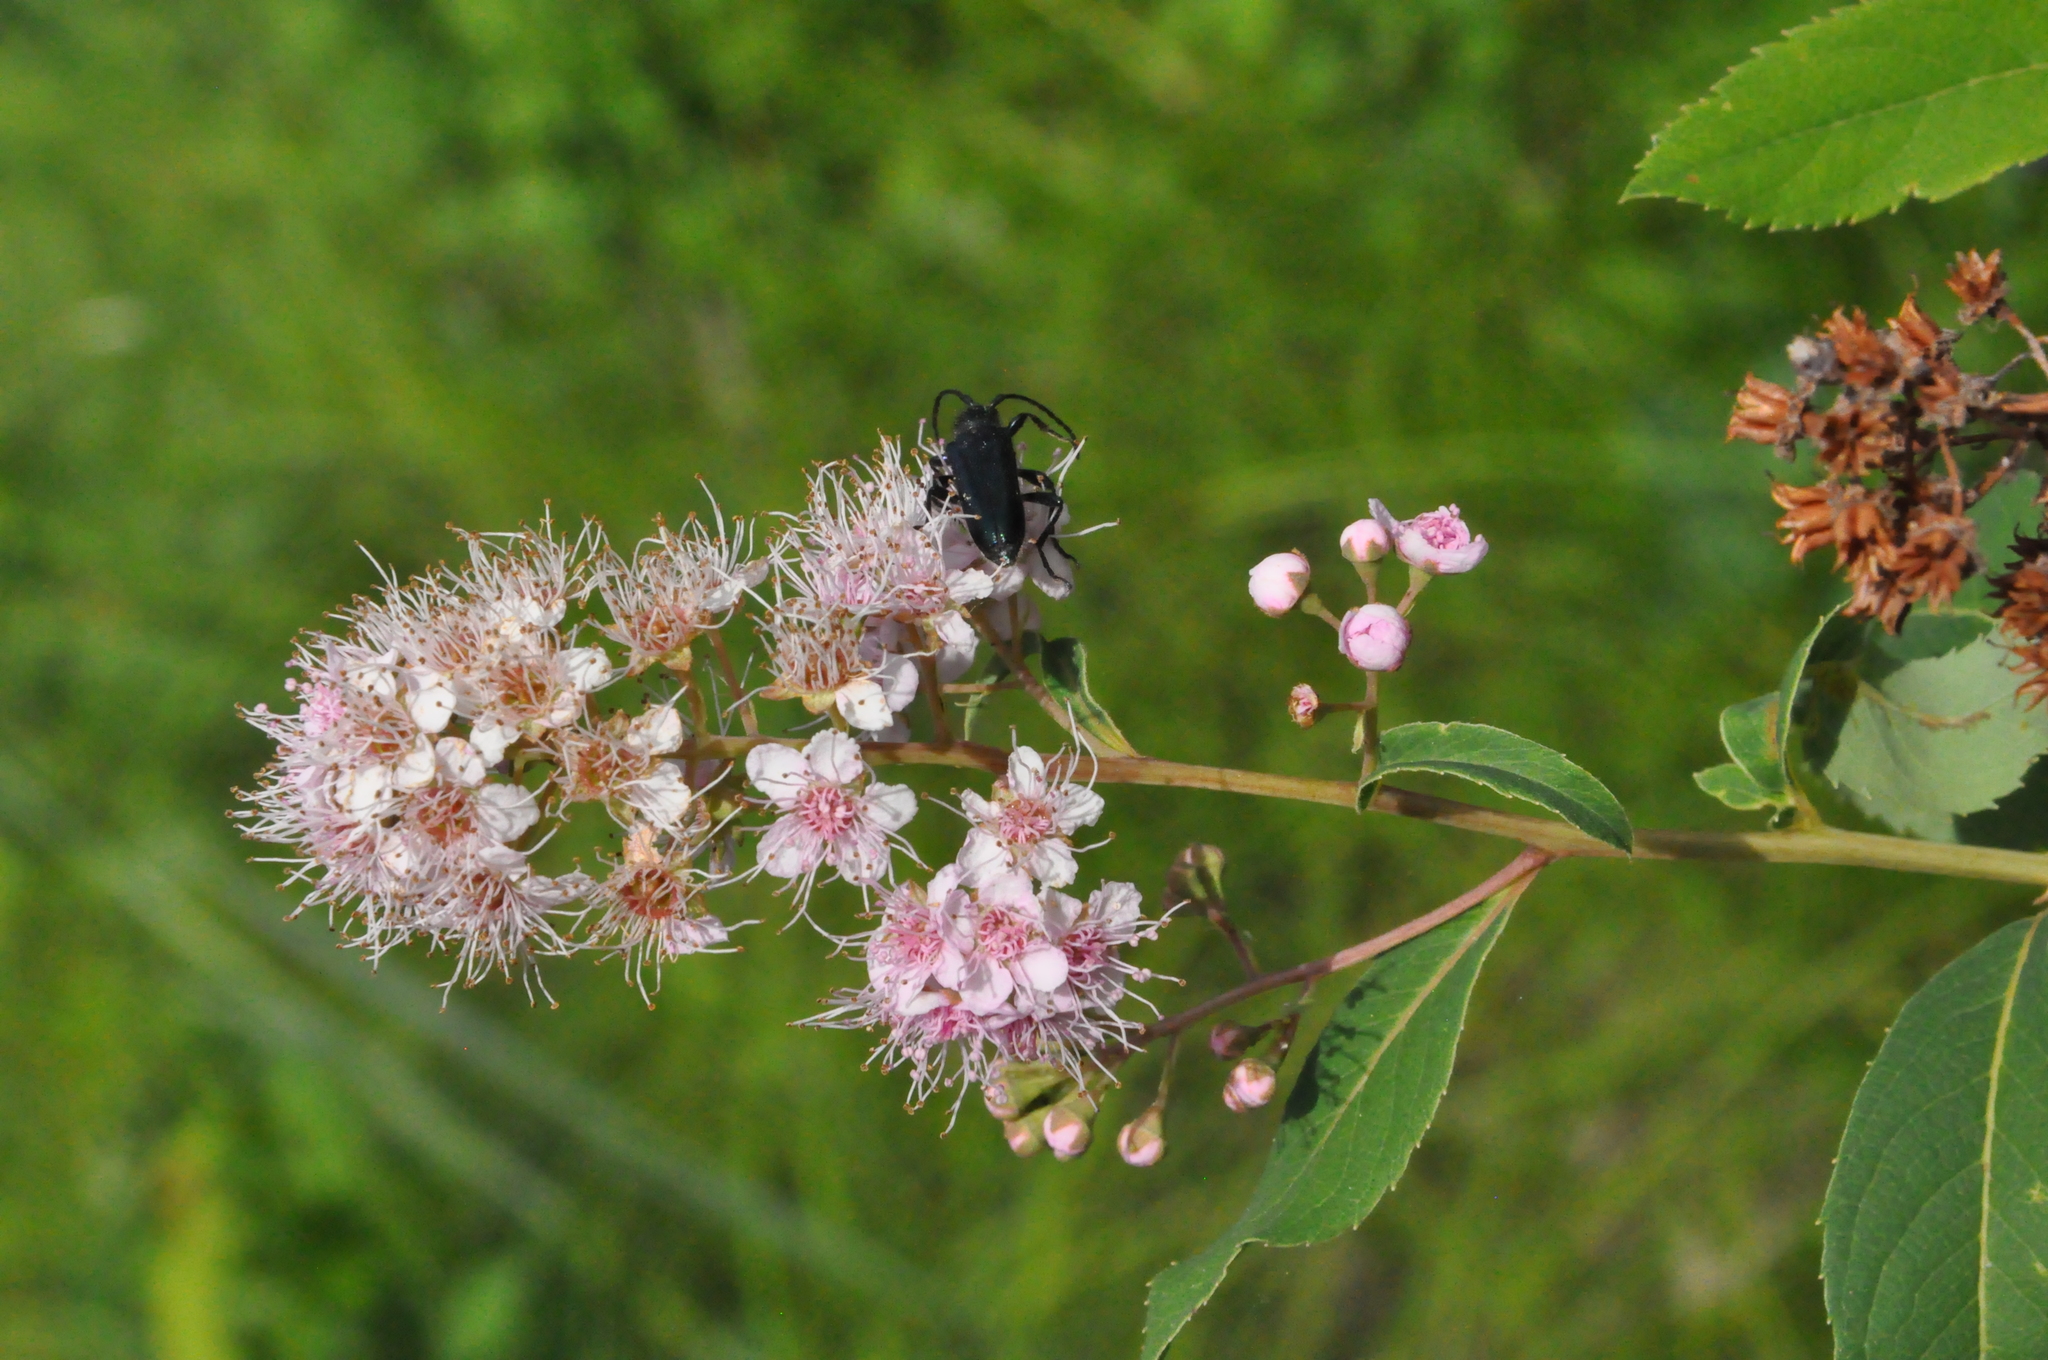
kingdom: Plantae
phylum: Tracheophyta
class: Magnoliopsida
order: Rosales
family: Rosaceae
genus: Spiraea
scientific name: Spiraea salicifolia
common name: Bridewort
